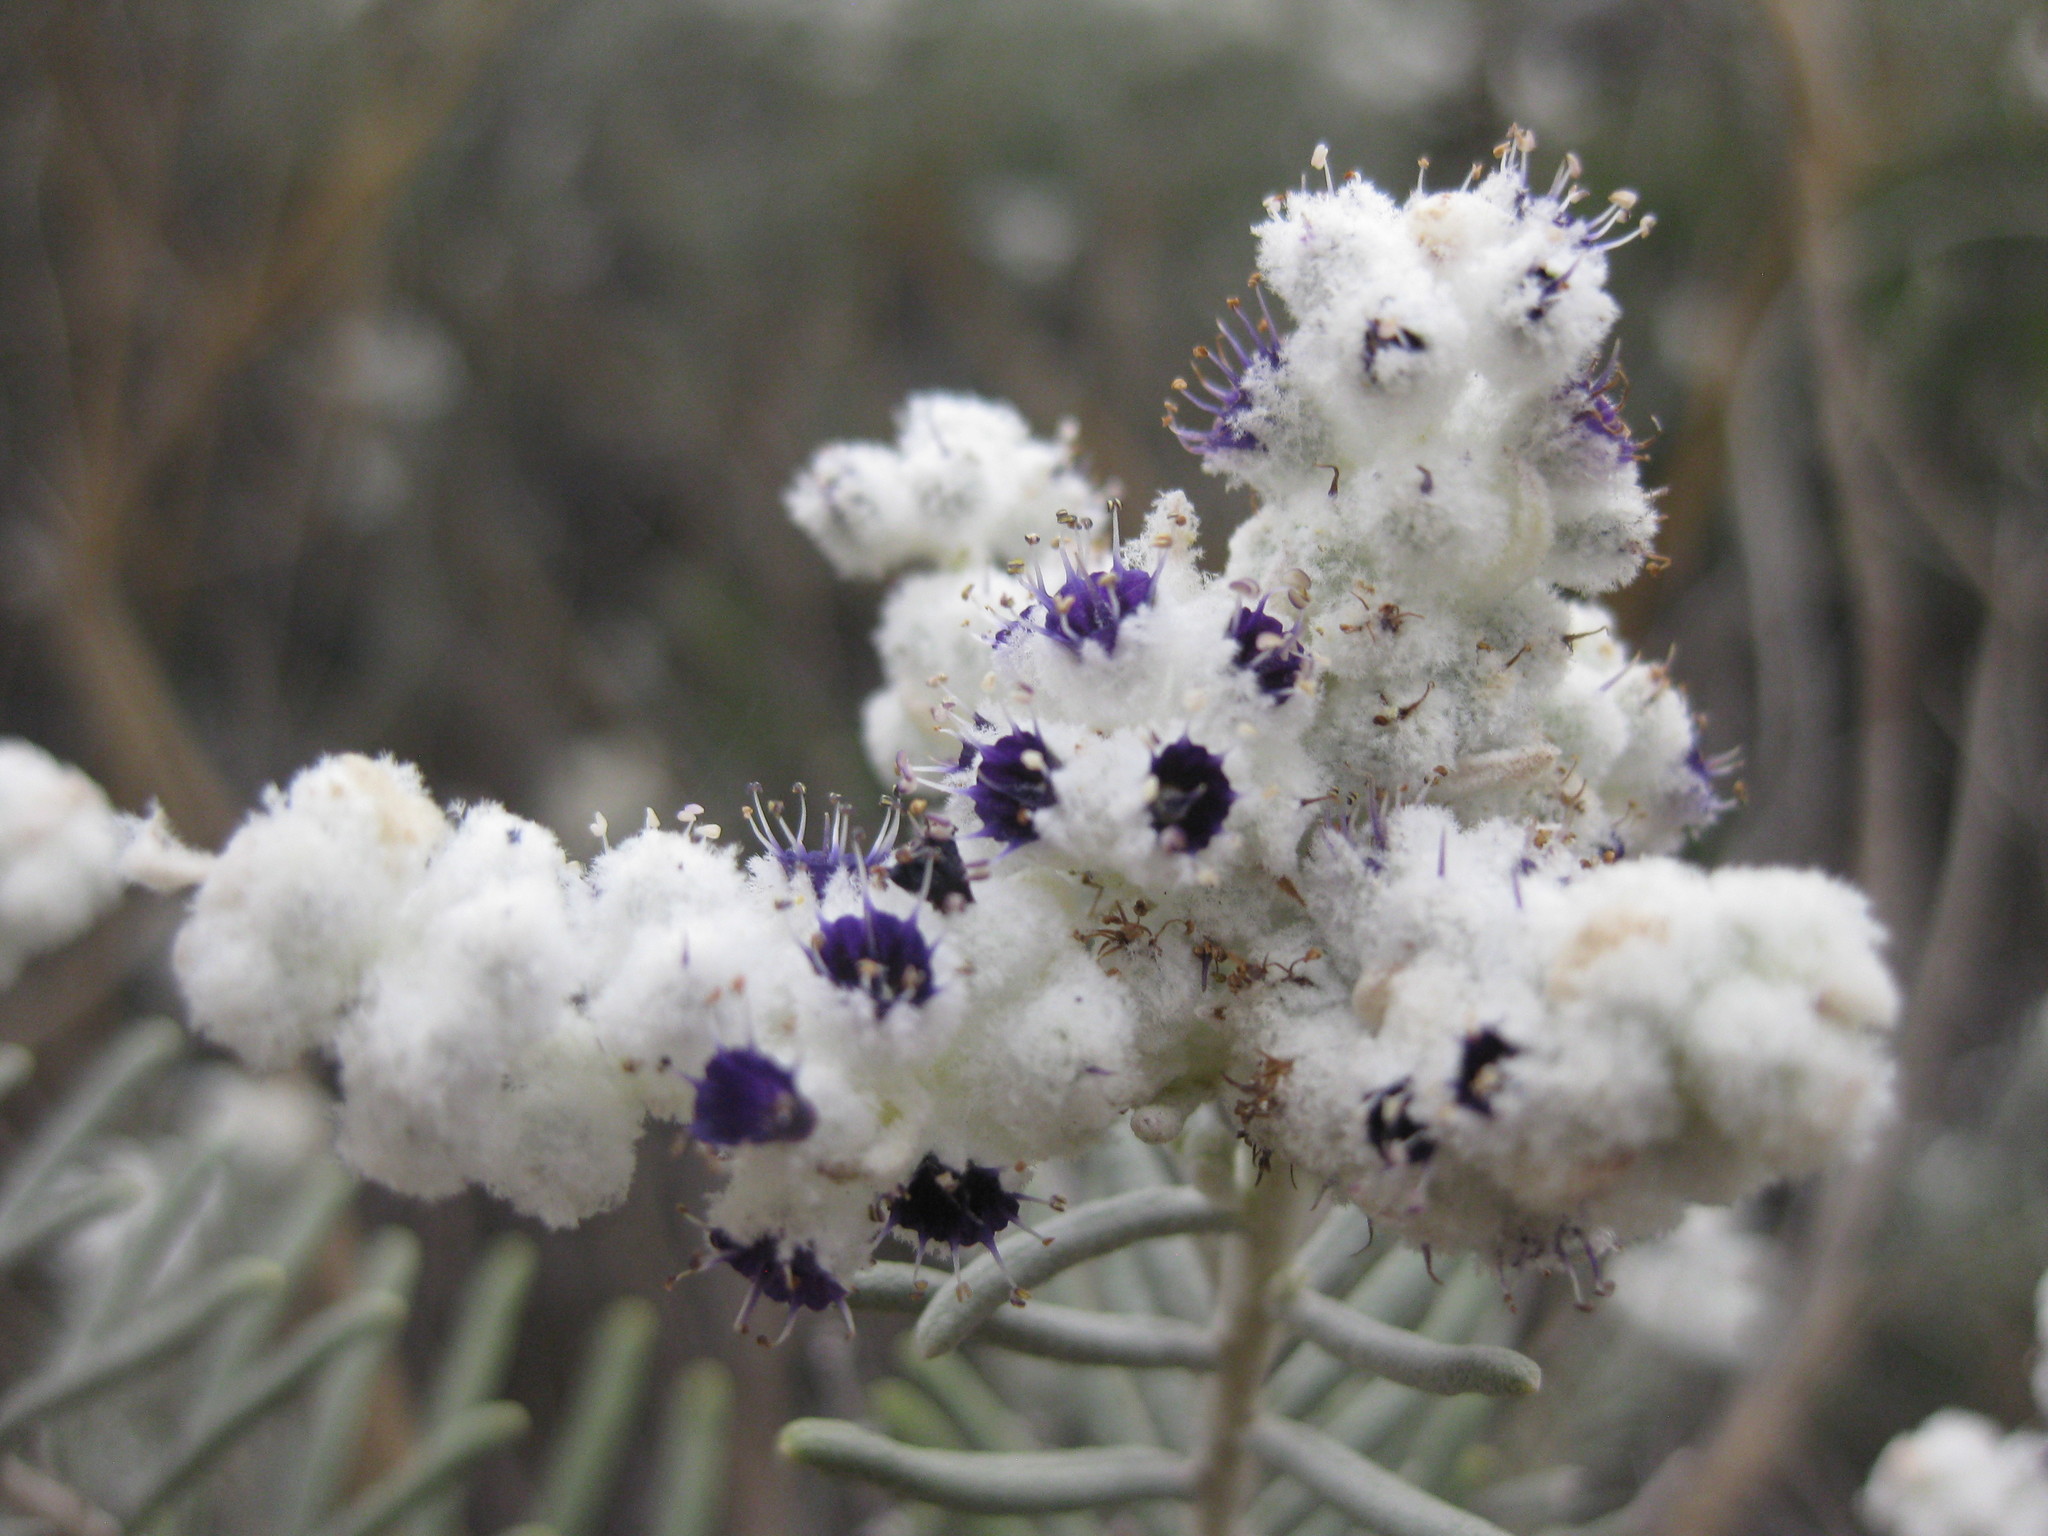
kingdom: Plantae
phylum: Tracheophyta
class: Magnoliopsida
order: Lamiales
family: Lamiaceae
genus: Lachnostachys
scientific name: Lachnostachys eriobotrya
